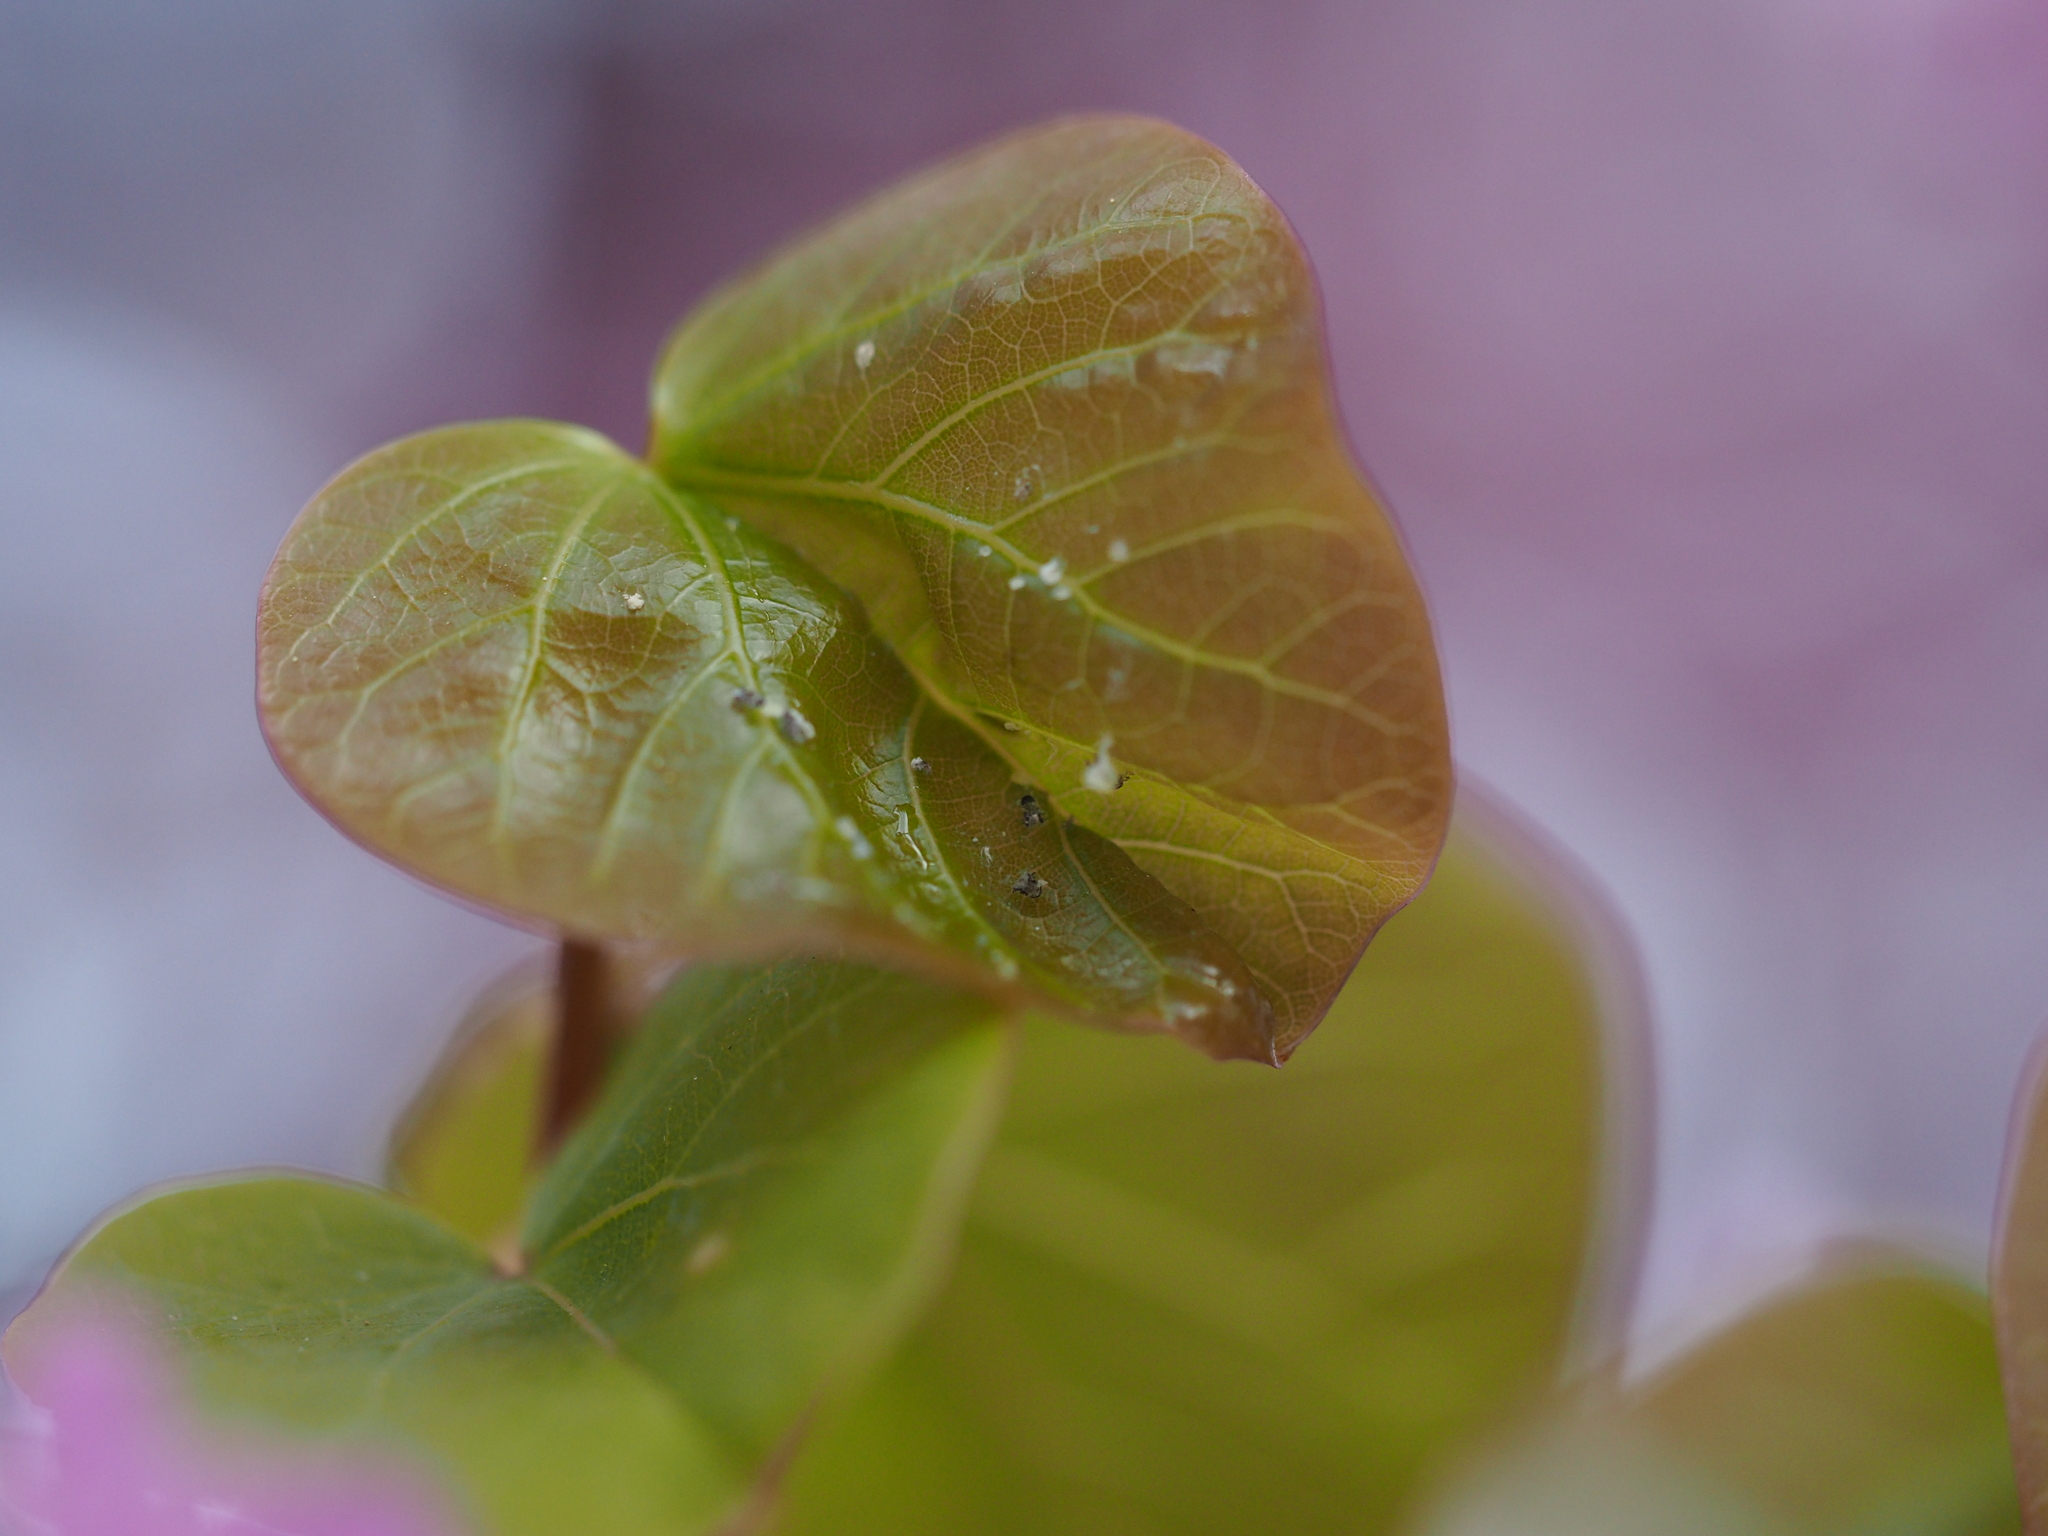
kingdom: Animalia
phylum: Arthropoda
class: Insecta
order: Hemiptera
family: Psyllidae
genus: Cacopsylla
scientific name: Cacopsylla pulchella
